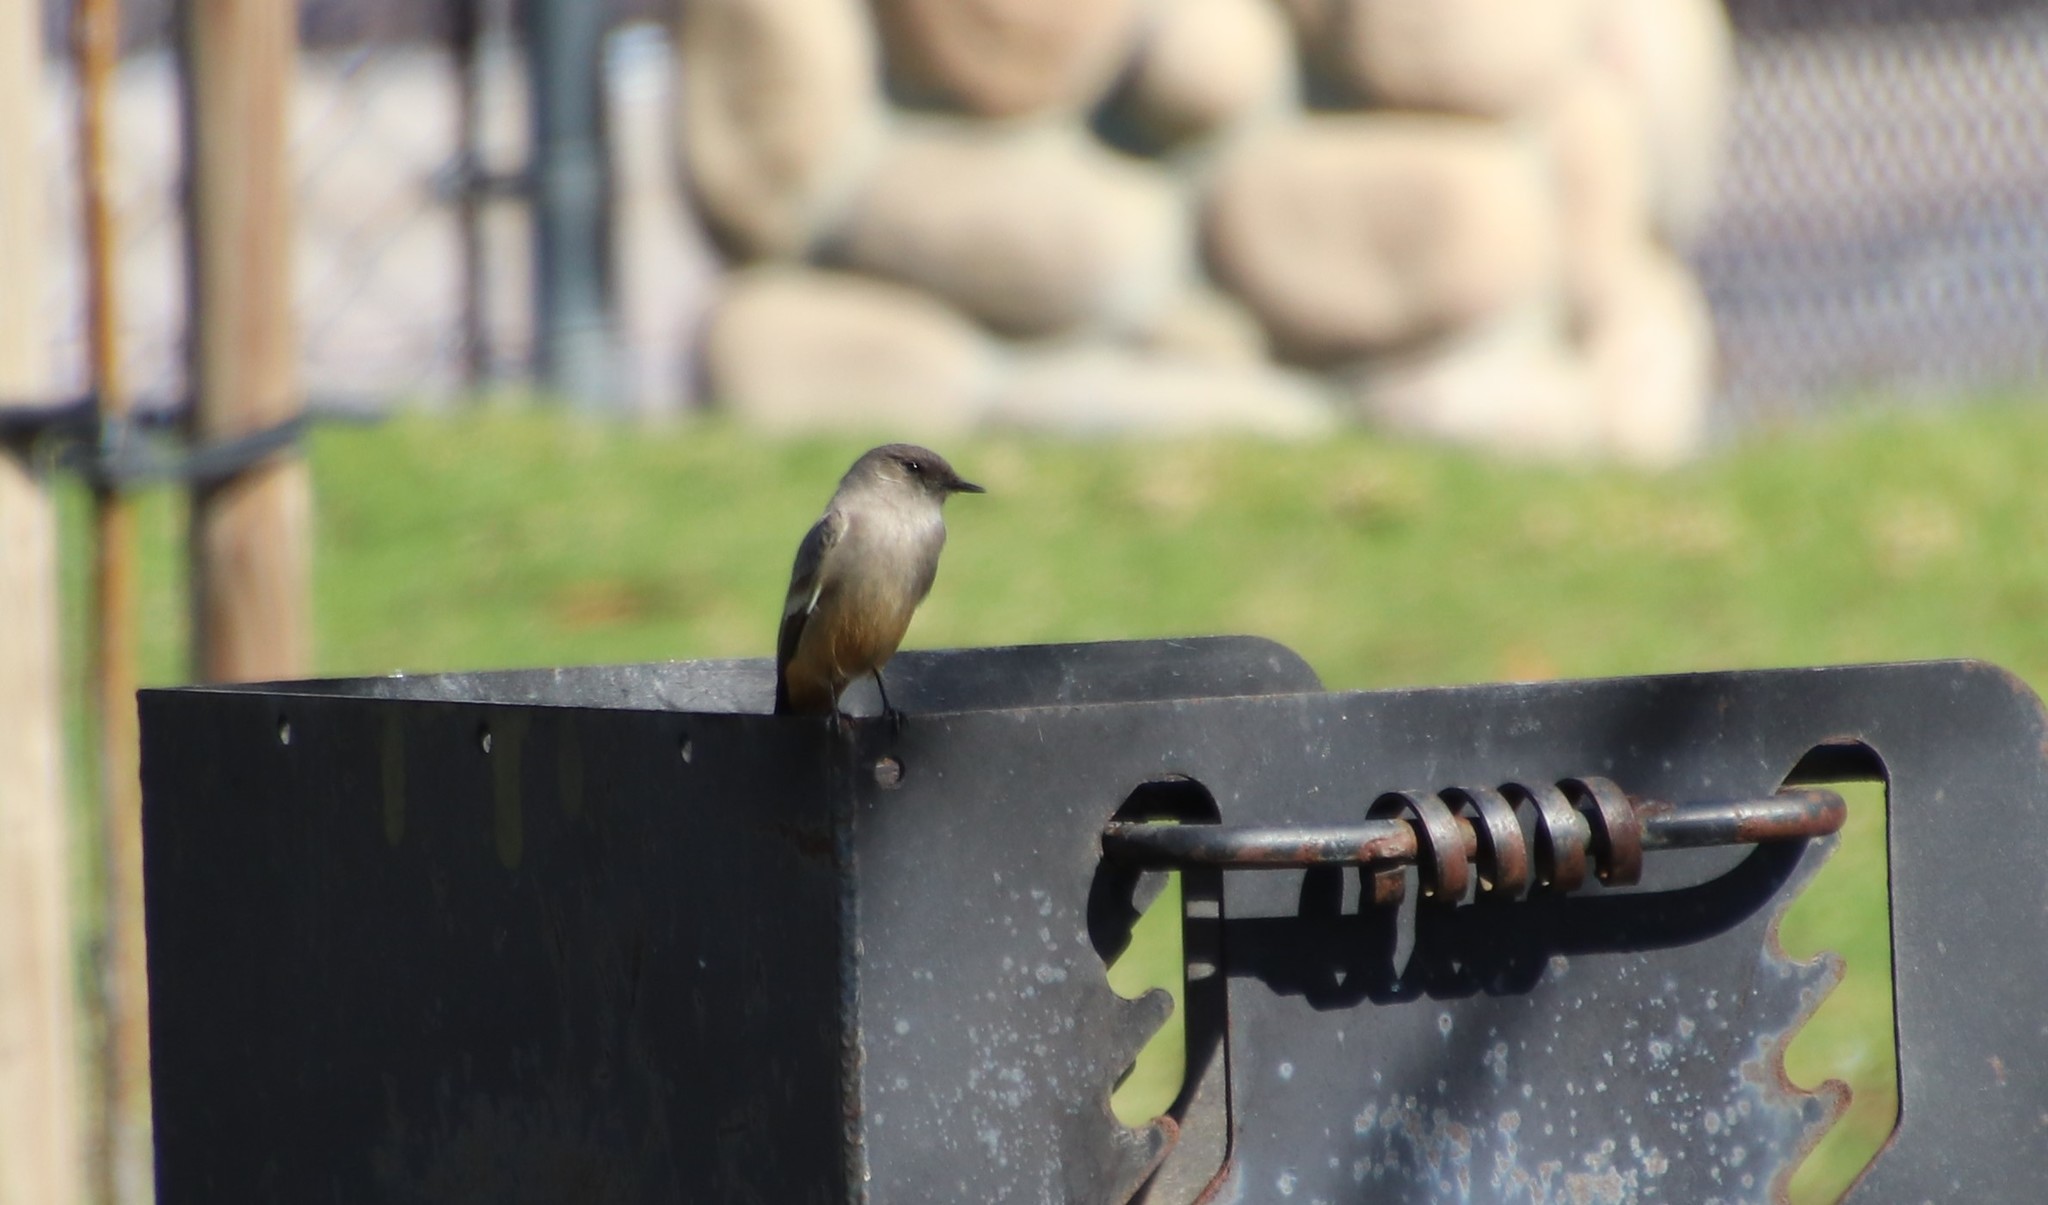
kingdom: Animalia
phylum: Chordata
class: Aves
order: Passeriformes
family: Tyrannidae
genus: Sayornis
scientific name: Sayornis saya
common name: Say's phoebe
